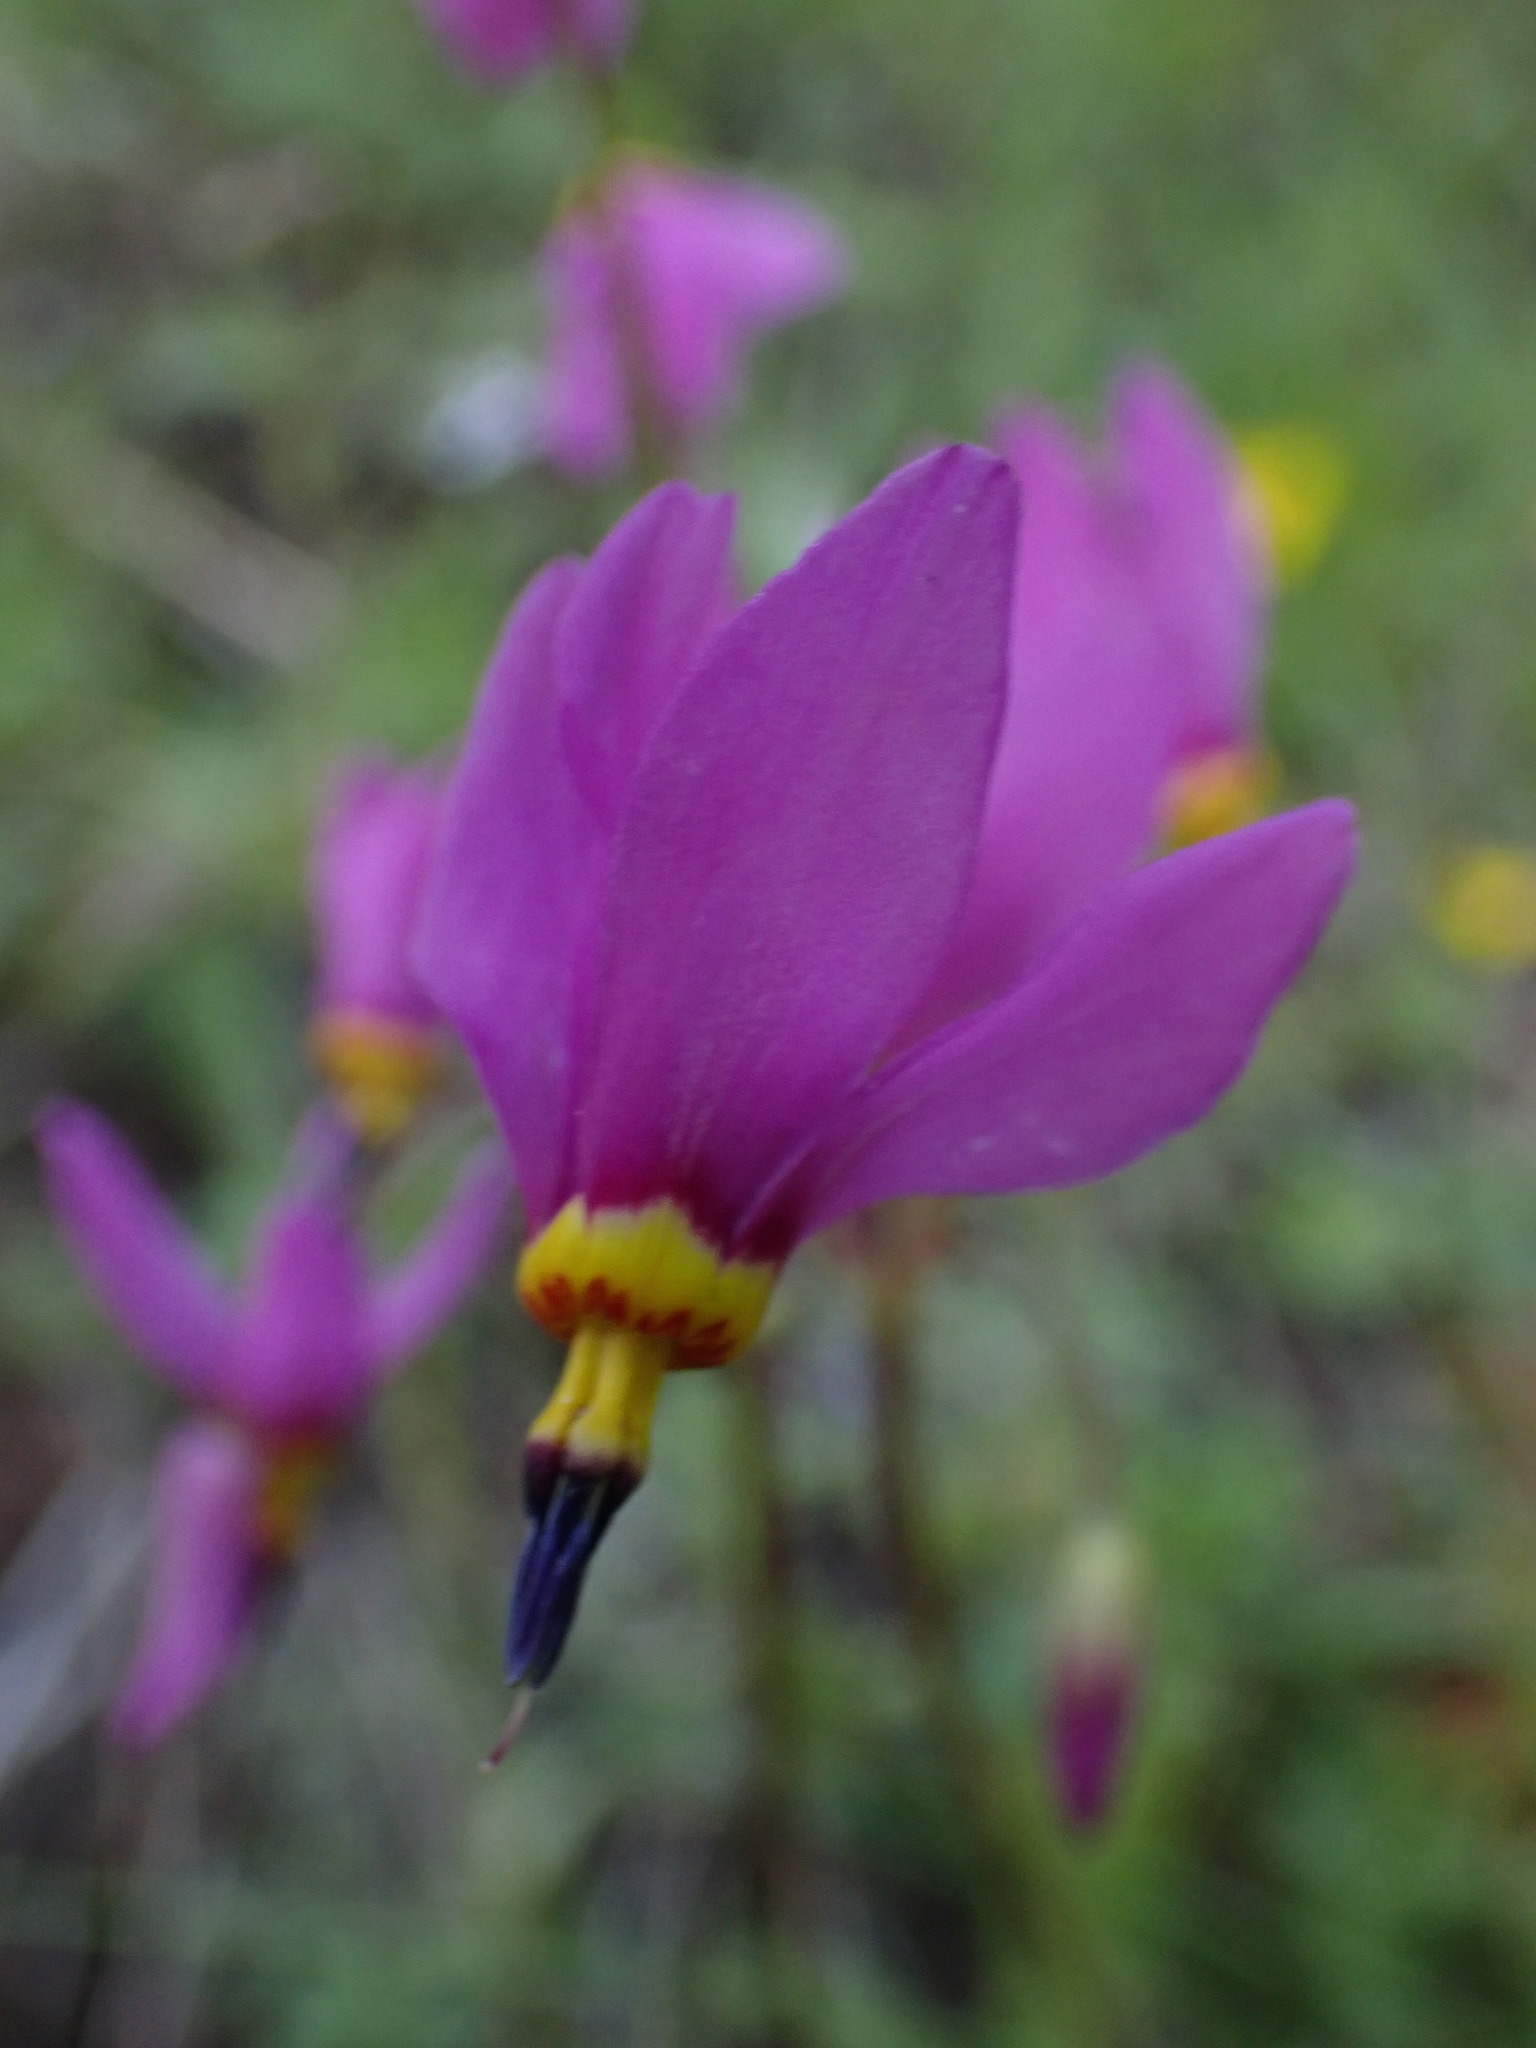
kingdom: Plantae
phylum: Tracheophyta
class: Magnoliopsida
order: Ericales
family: Primulaceae
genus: Dodecatheon
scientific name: Dodecatheon pulchellum
